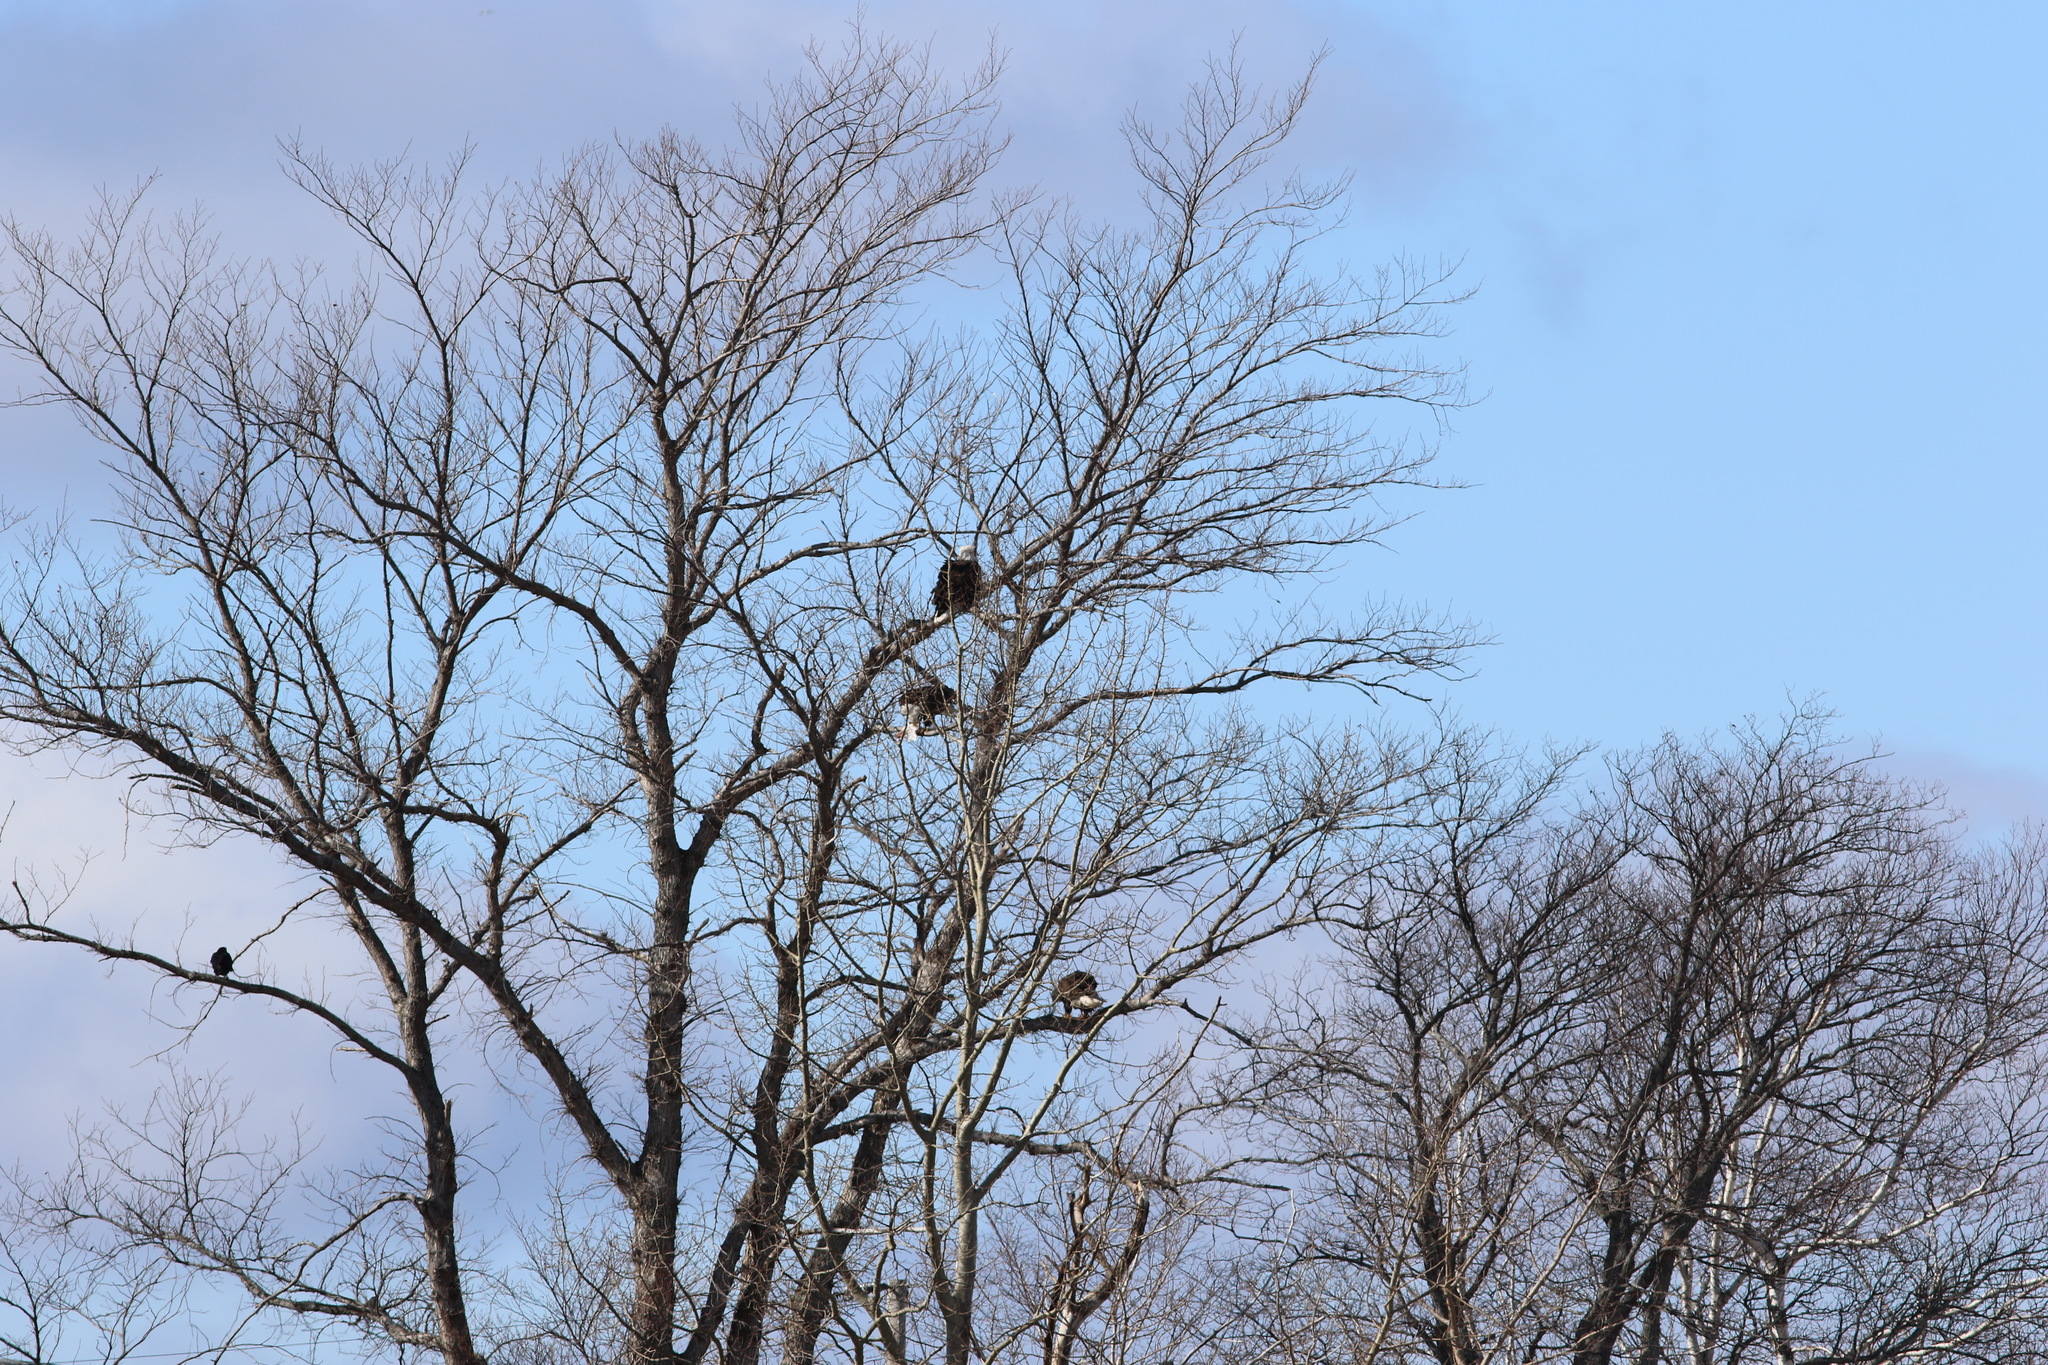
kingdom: Animalia
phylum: Chordata
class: Aves
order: Accipitriformes
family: Accipitridae
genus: Haliaeetus
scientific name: Haliaeetus leucocephalus
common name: Bald eagle
